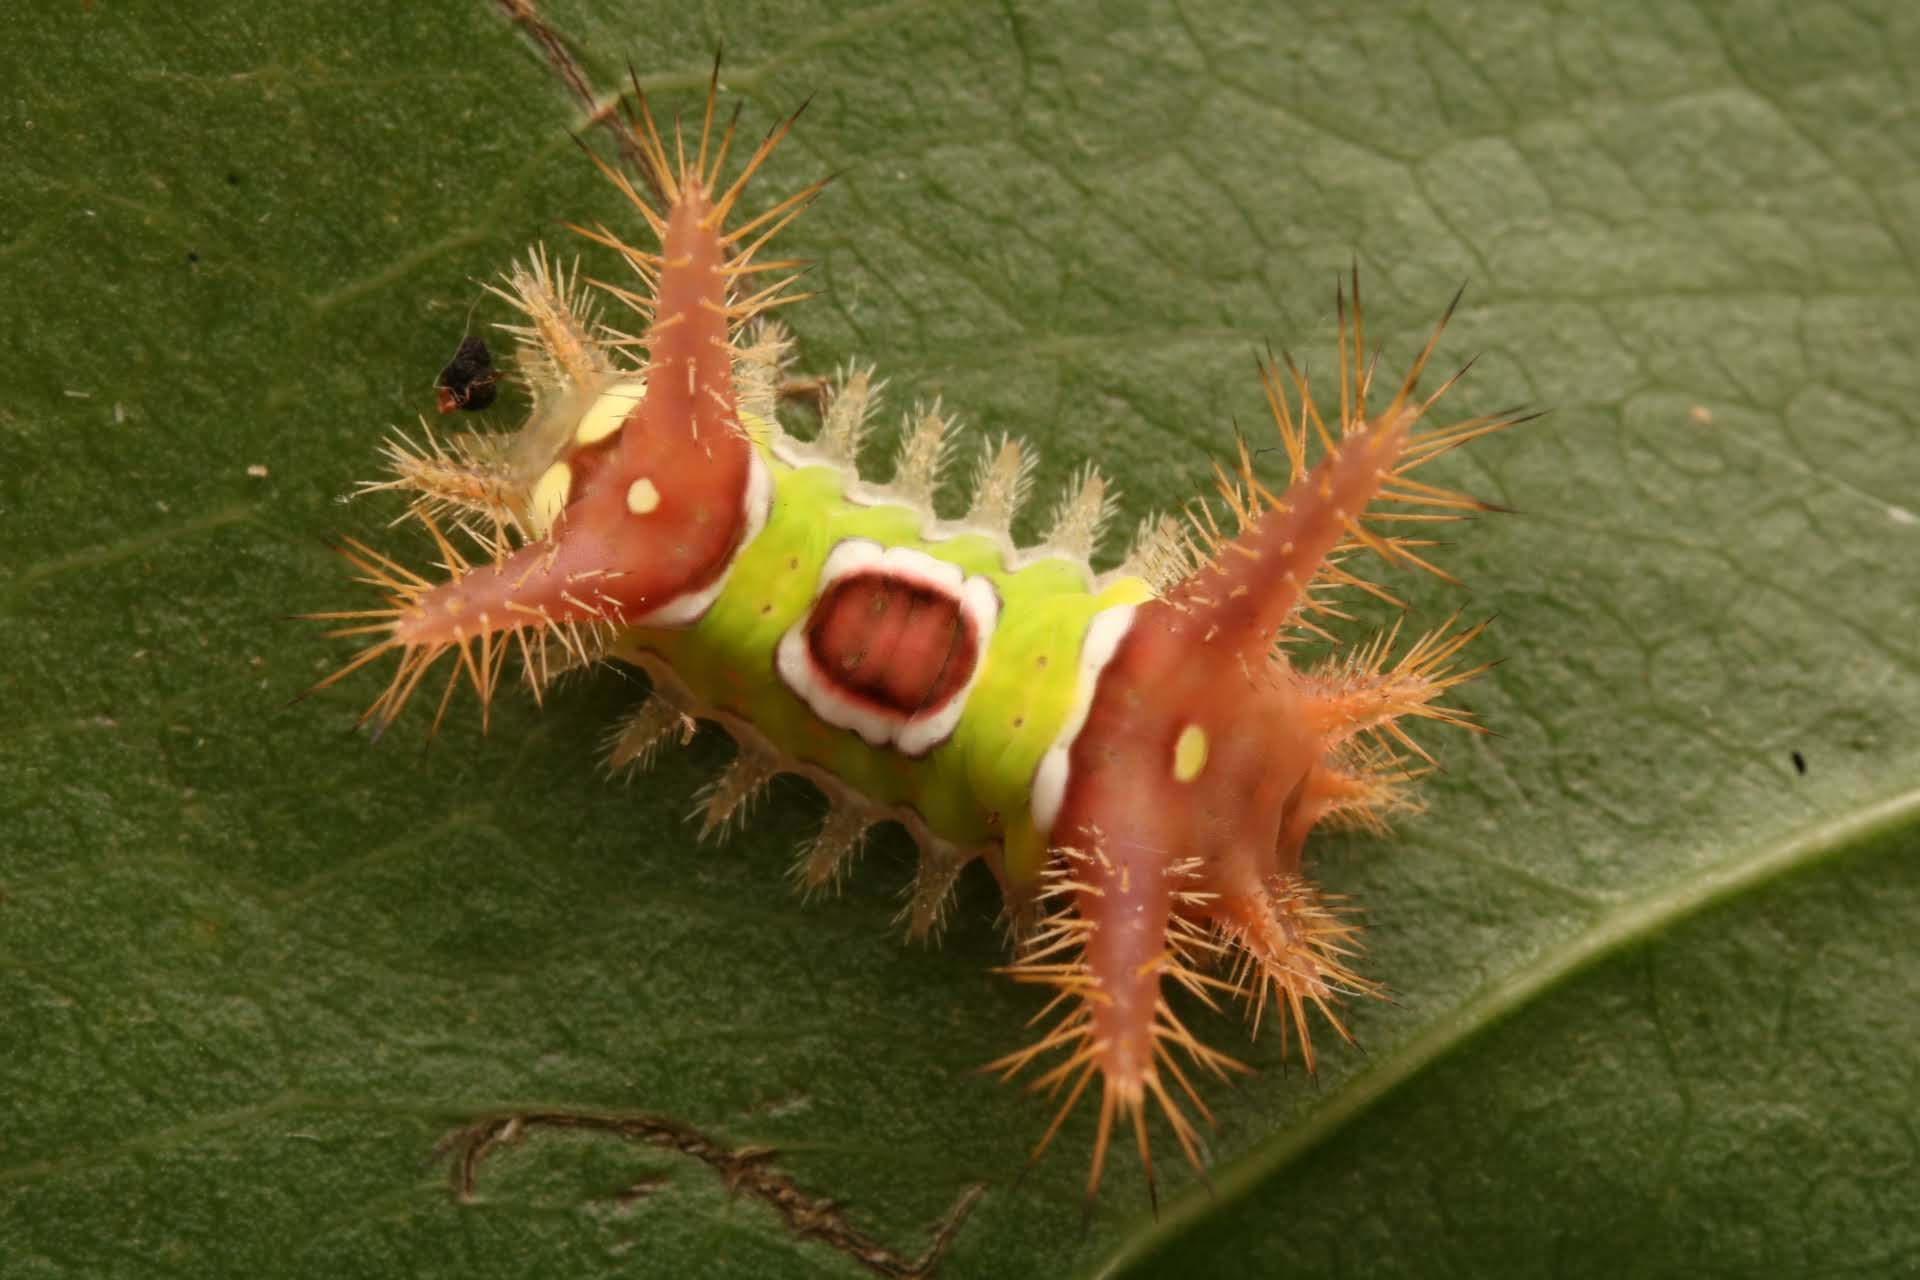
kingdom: Animalia
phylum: Arthropoda
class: Insecta
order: Lepidoptera
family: Limacodidae
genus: Acharia
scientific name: Acharia stimulea
